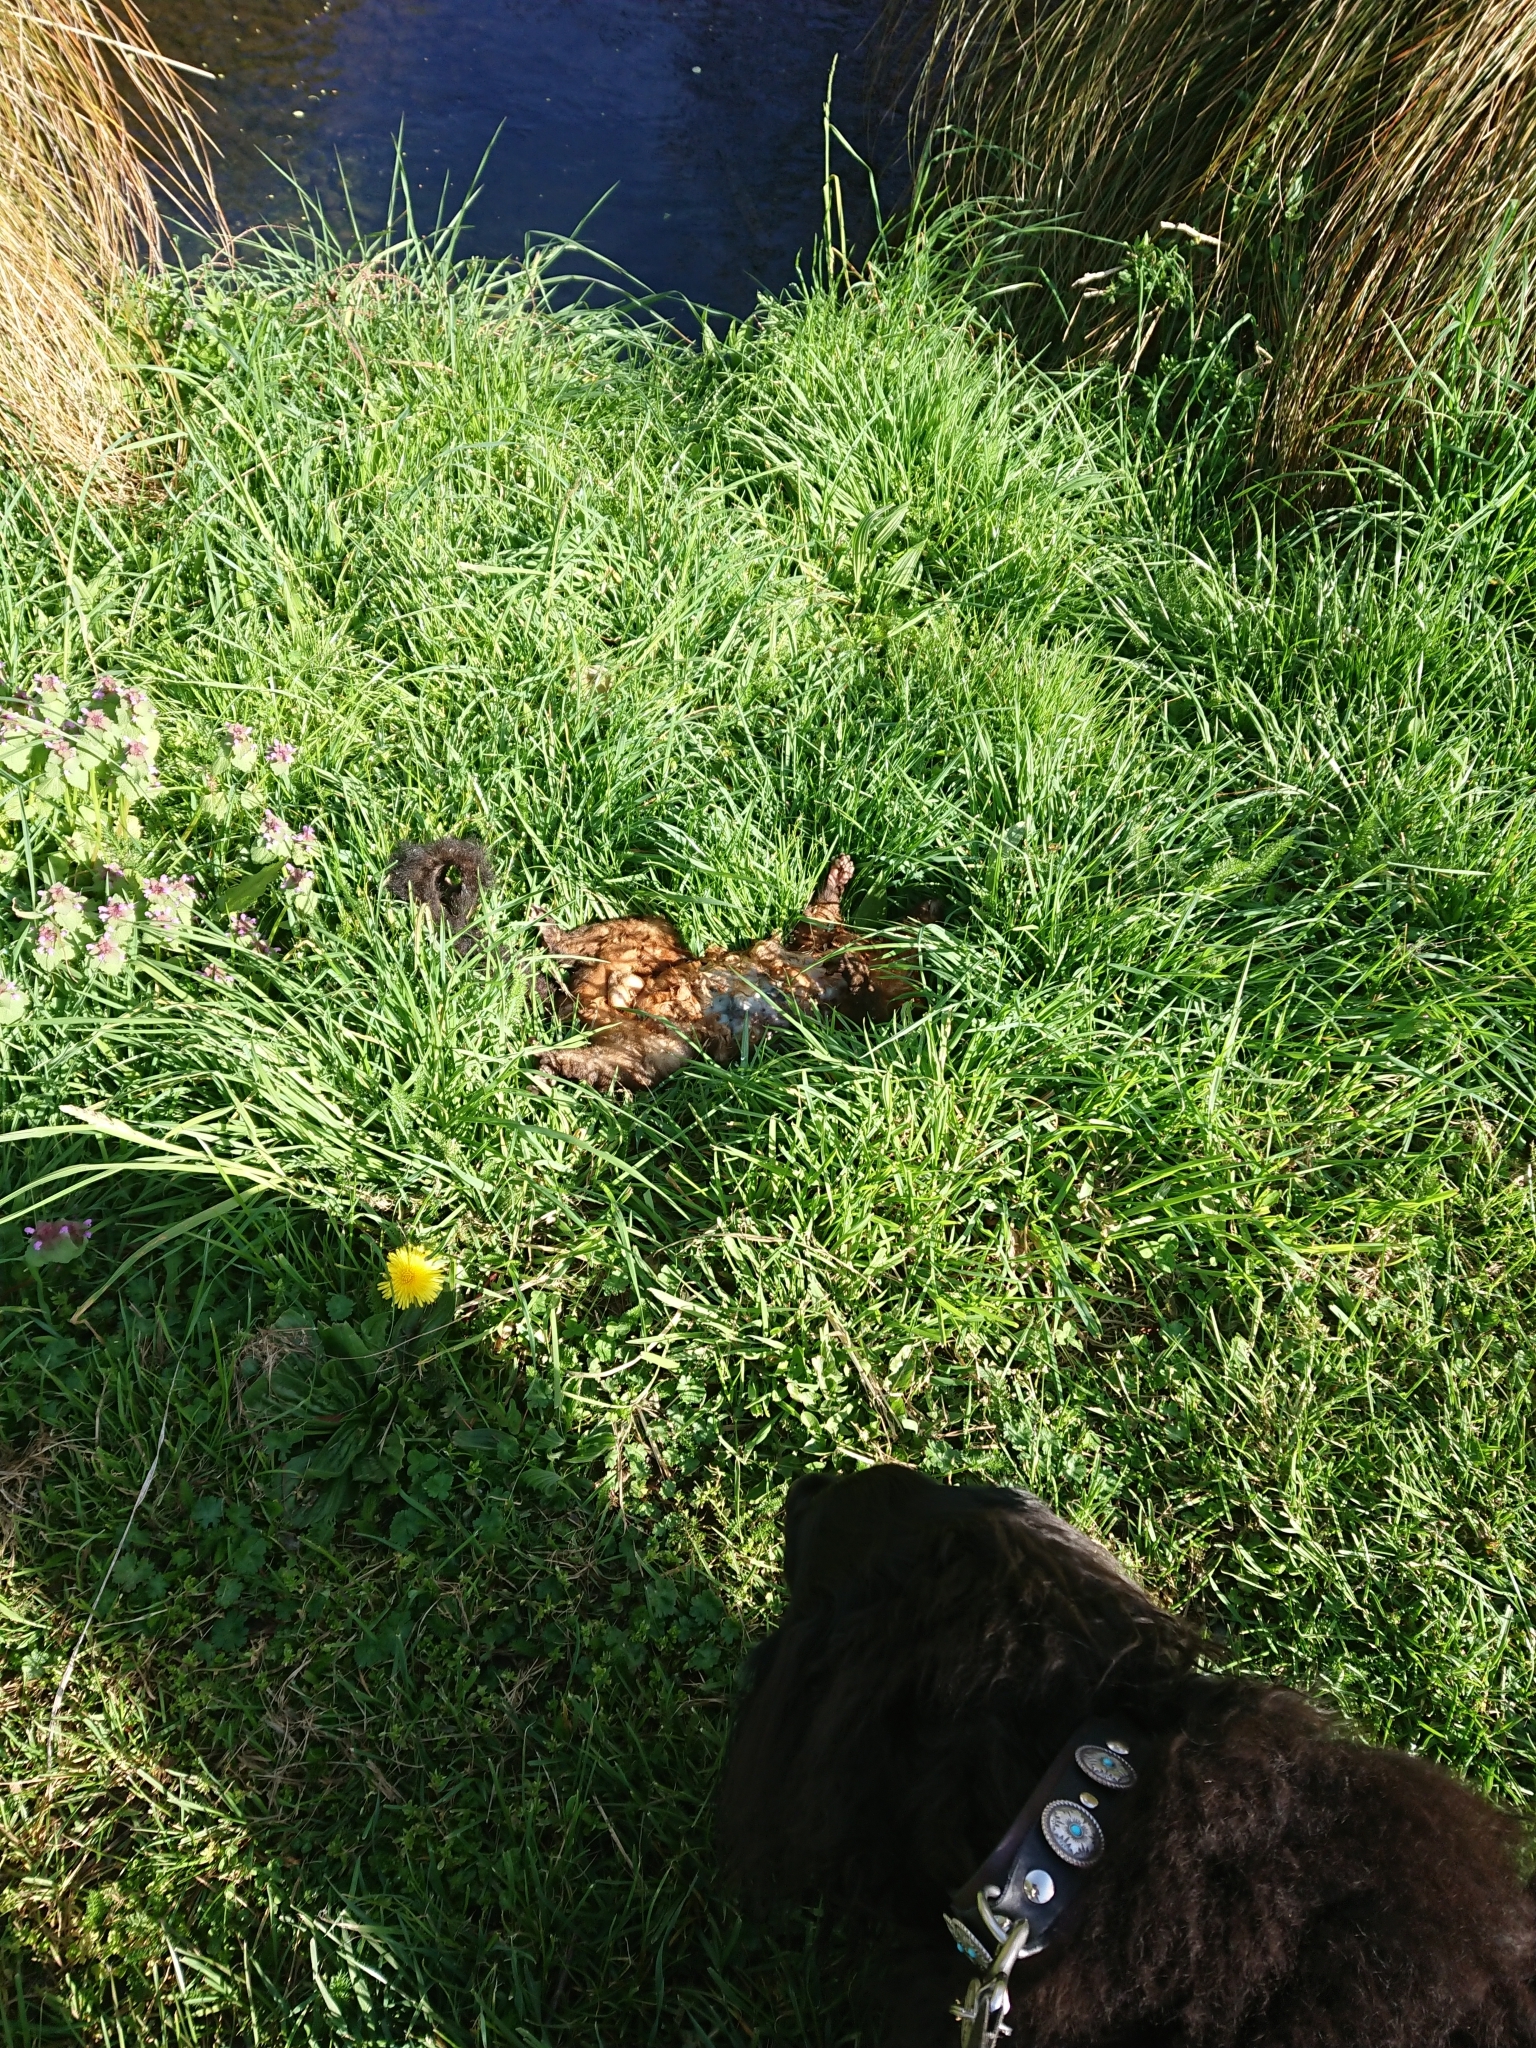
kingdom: Animalia
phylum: Chordata
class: Mammalia
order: Diprotodontia
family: Phalangeridae
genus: Trichosurus
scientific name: Trichosurus vulpecula
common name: Common brushtail
